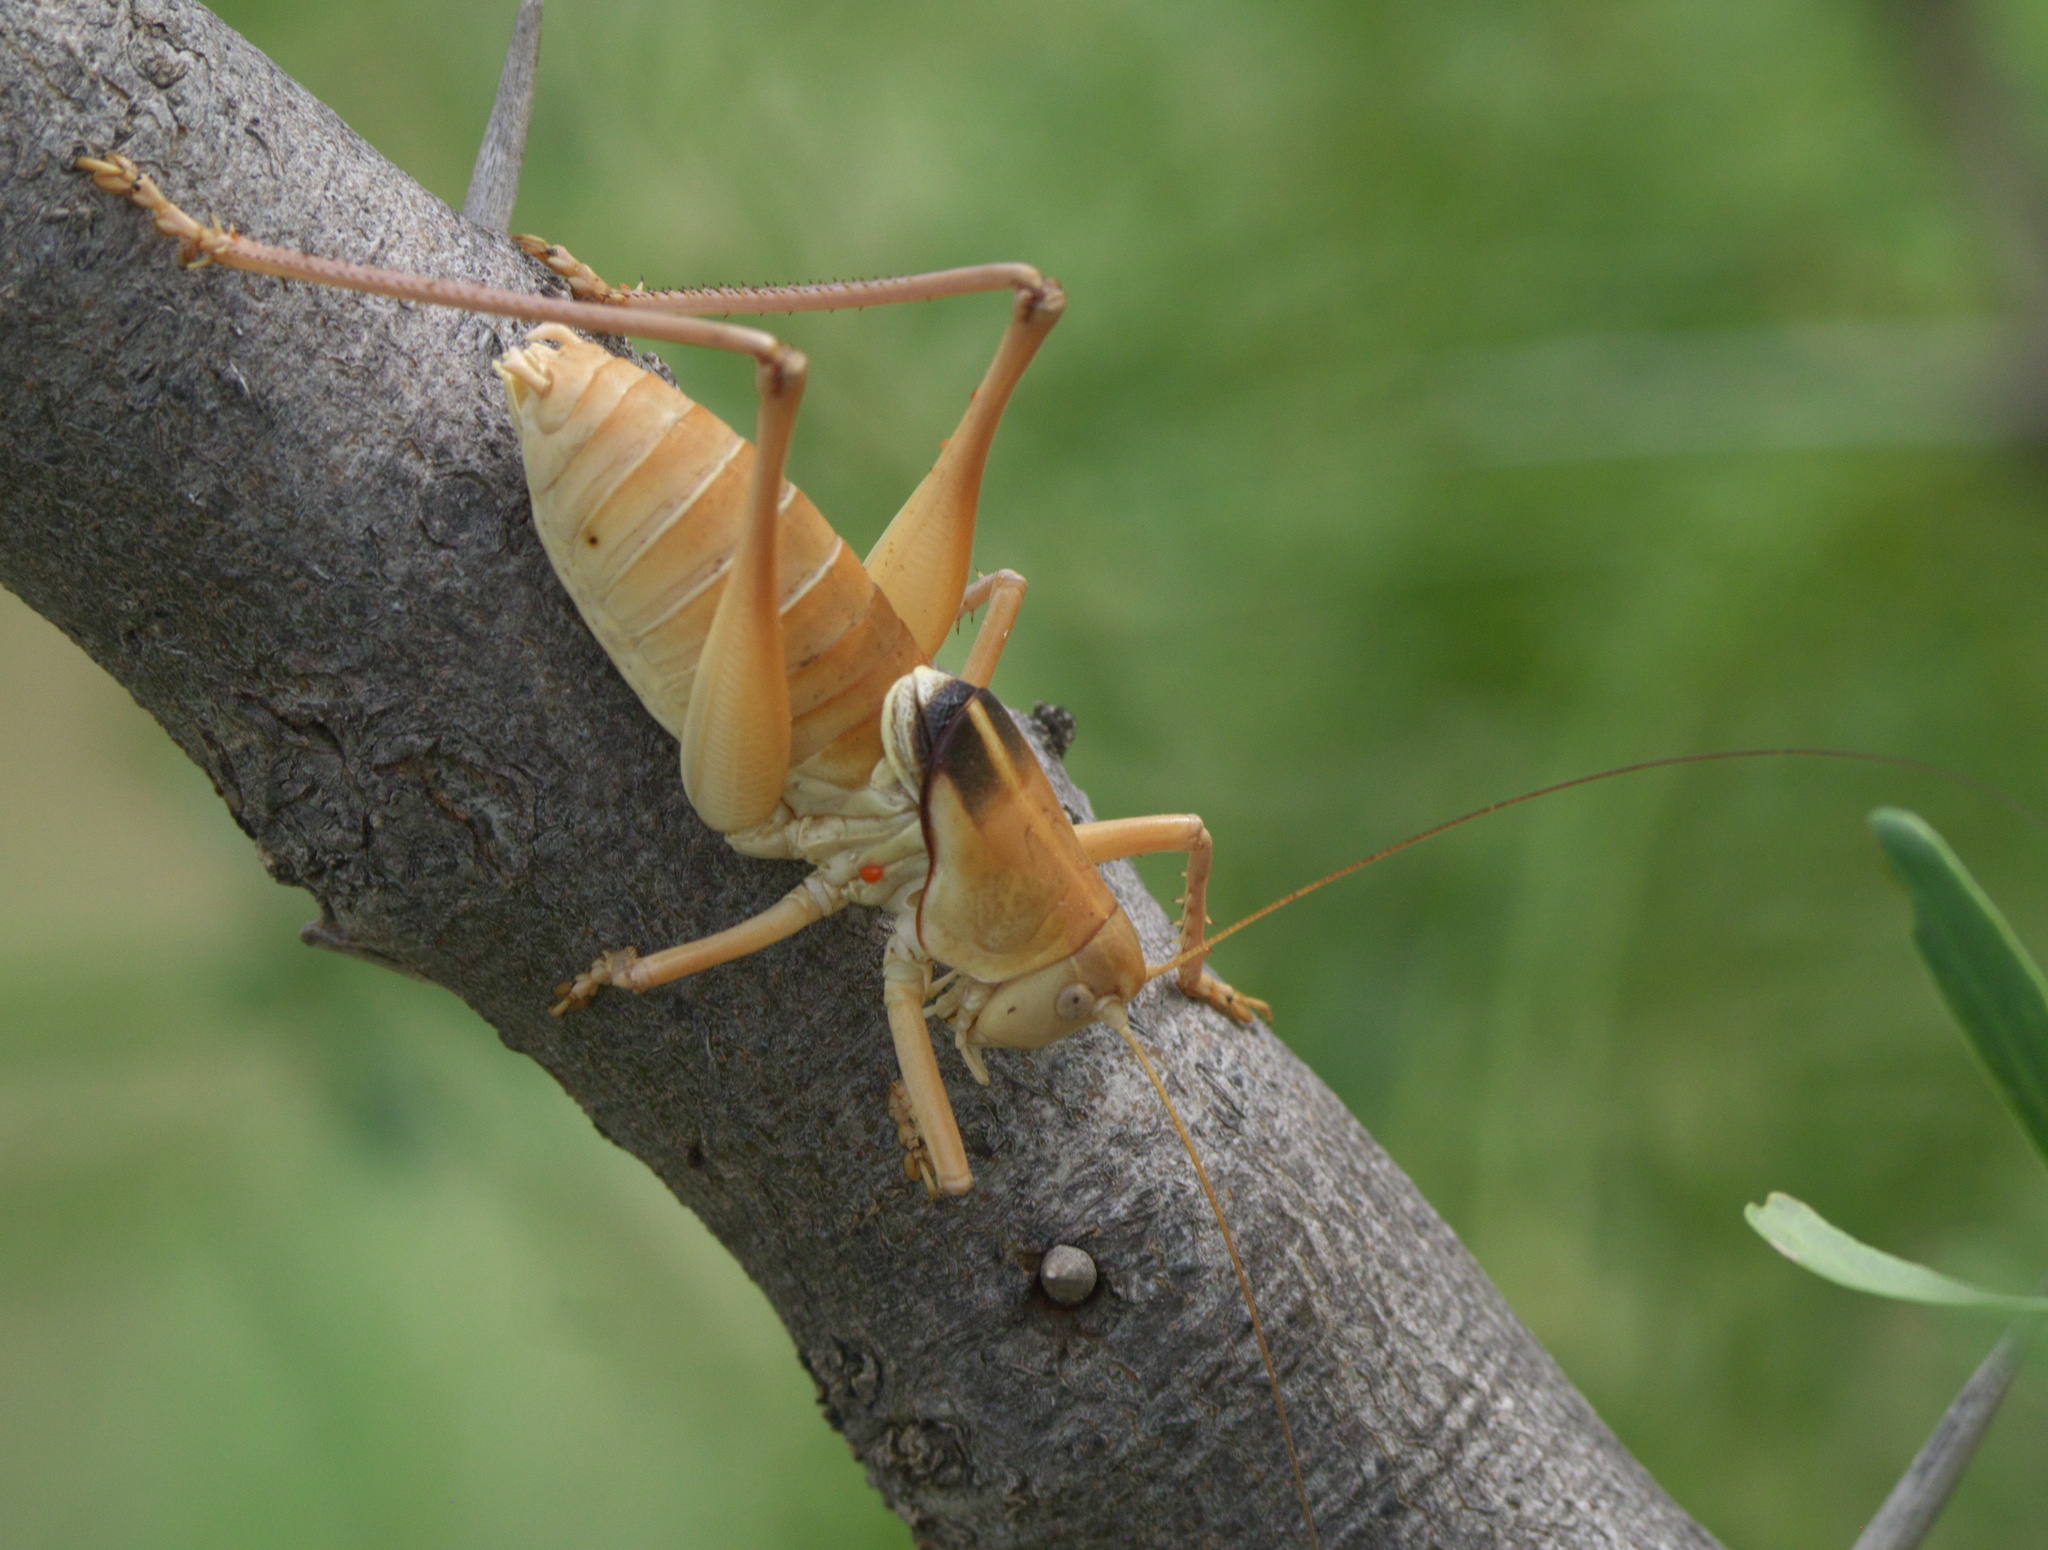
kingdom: Animalia
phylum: Arthropoda
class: Insecta
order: Orthoptera
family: Tettigoniidae
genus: Pediodectes
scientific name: Pediodectes haldemanii
